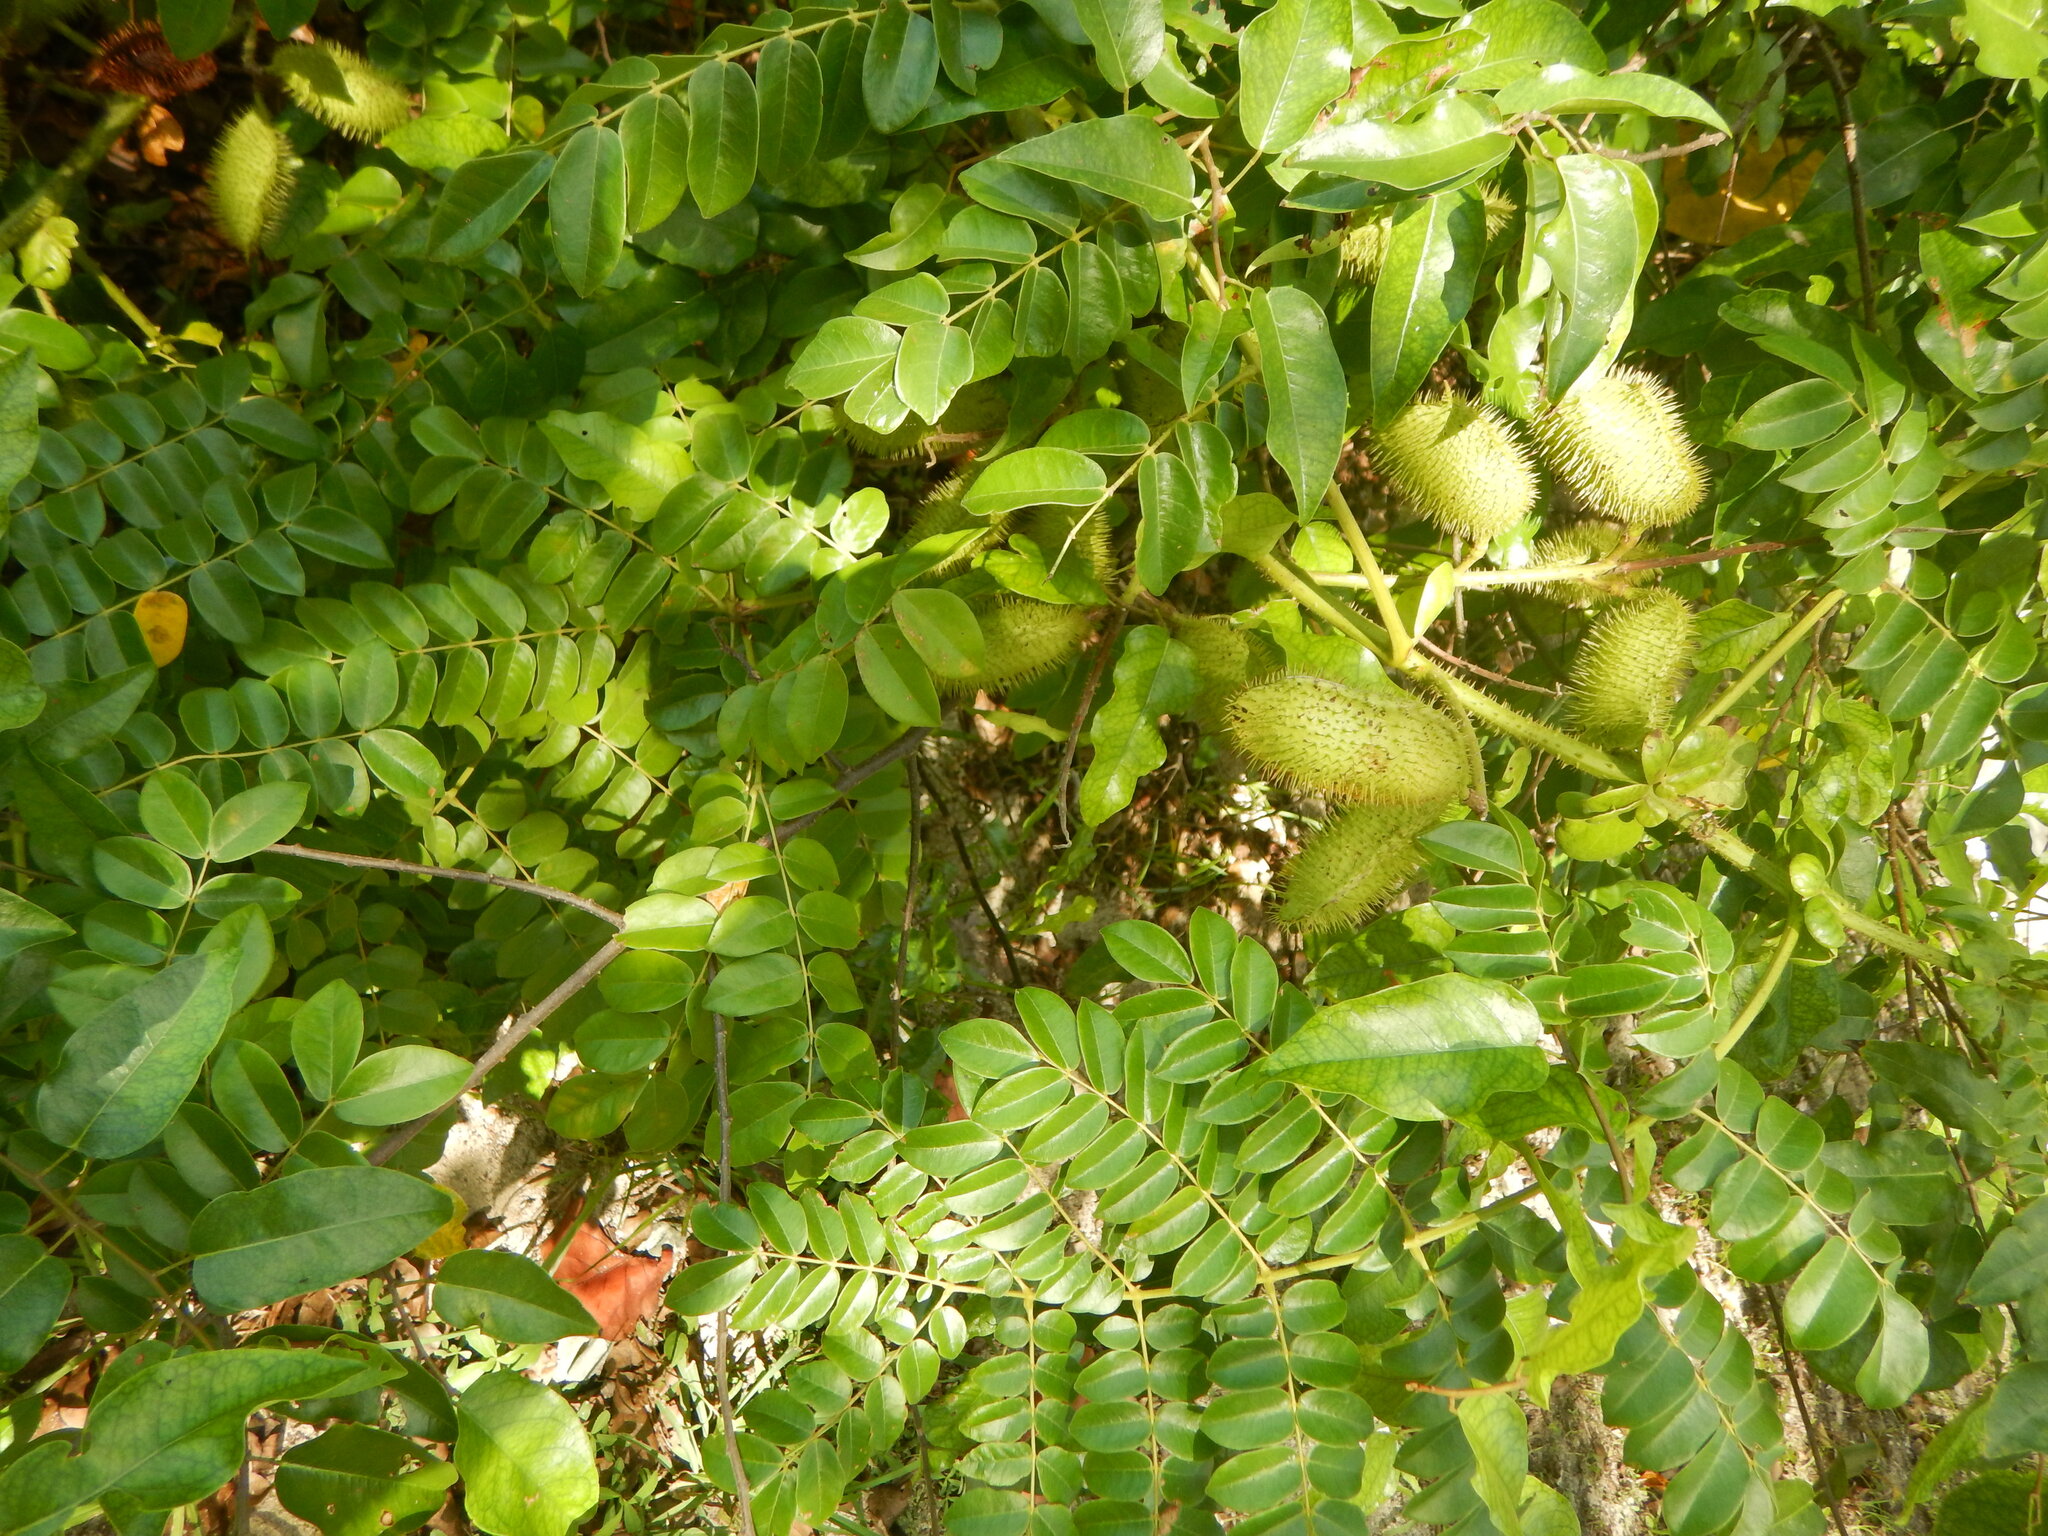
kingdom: Plantae
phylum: Tracheophyta
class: Magnoliopsida
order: Fabales
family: Fabaceae
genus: Guilandina
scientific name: Guilandina bonduc
